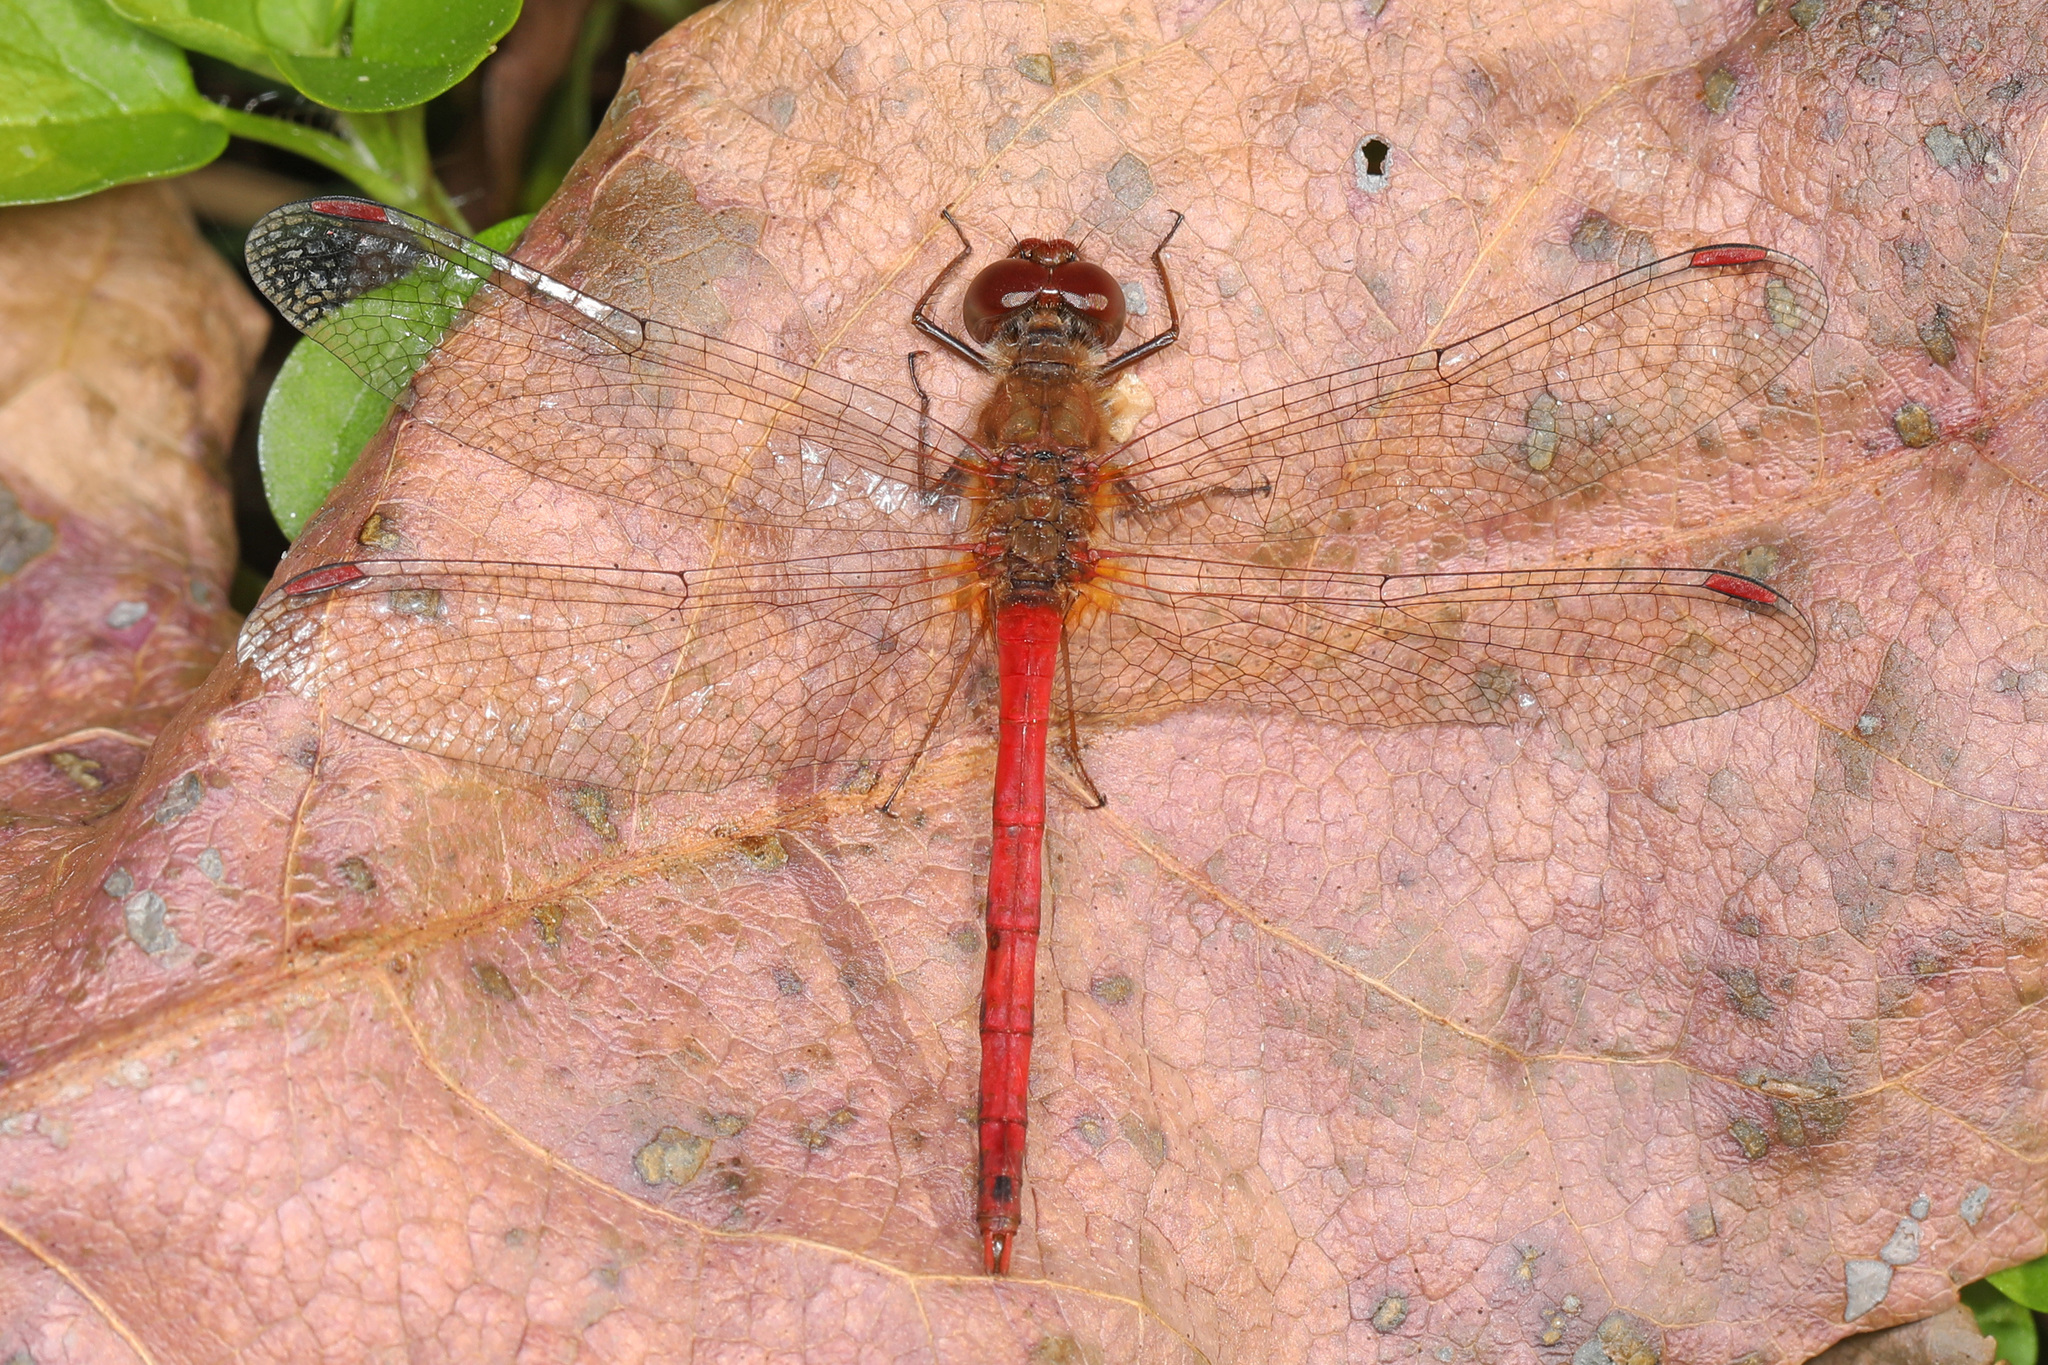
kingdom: Animalia
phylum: Arthropoda
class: Insecta
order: Odonata
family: Libellulidae
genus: Sympetrum
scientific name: Sympetrum vicinum
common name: Autumn meadowhawk
